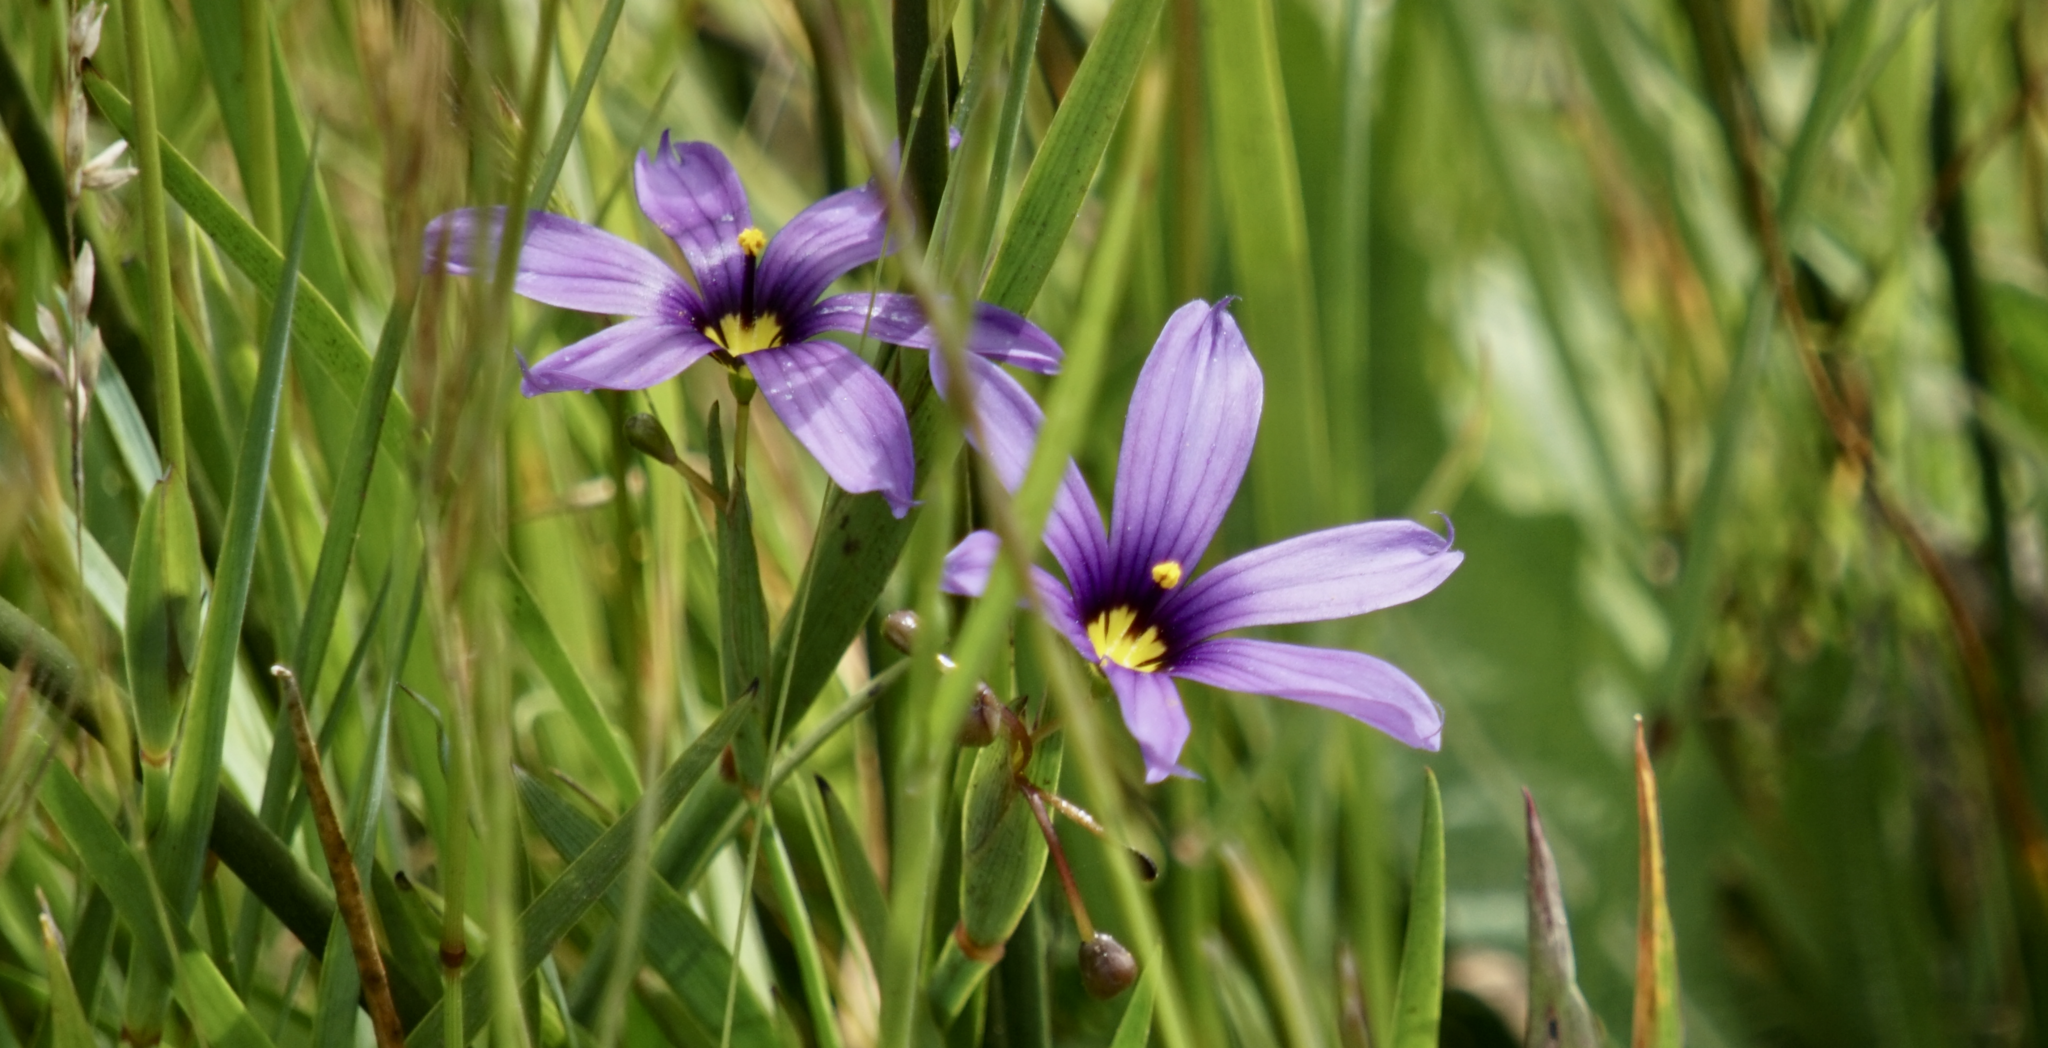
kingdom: Plantae
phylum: Tracheophyta
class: Liliopsida
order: Asparagales
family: Iridaceae
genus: Sisyrinchium
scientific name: Sisyrinchium bellum
